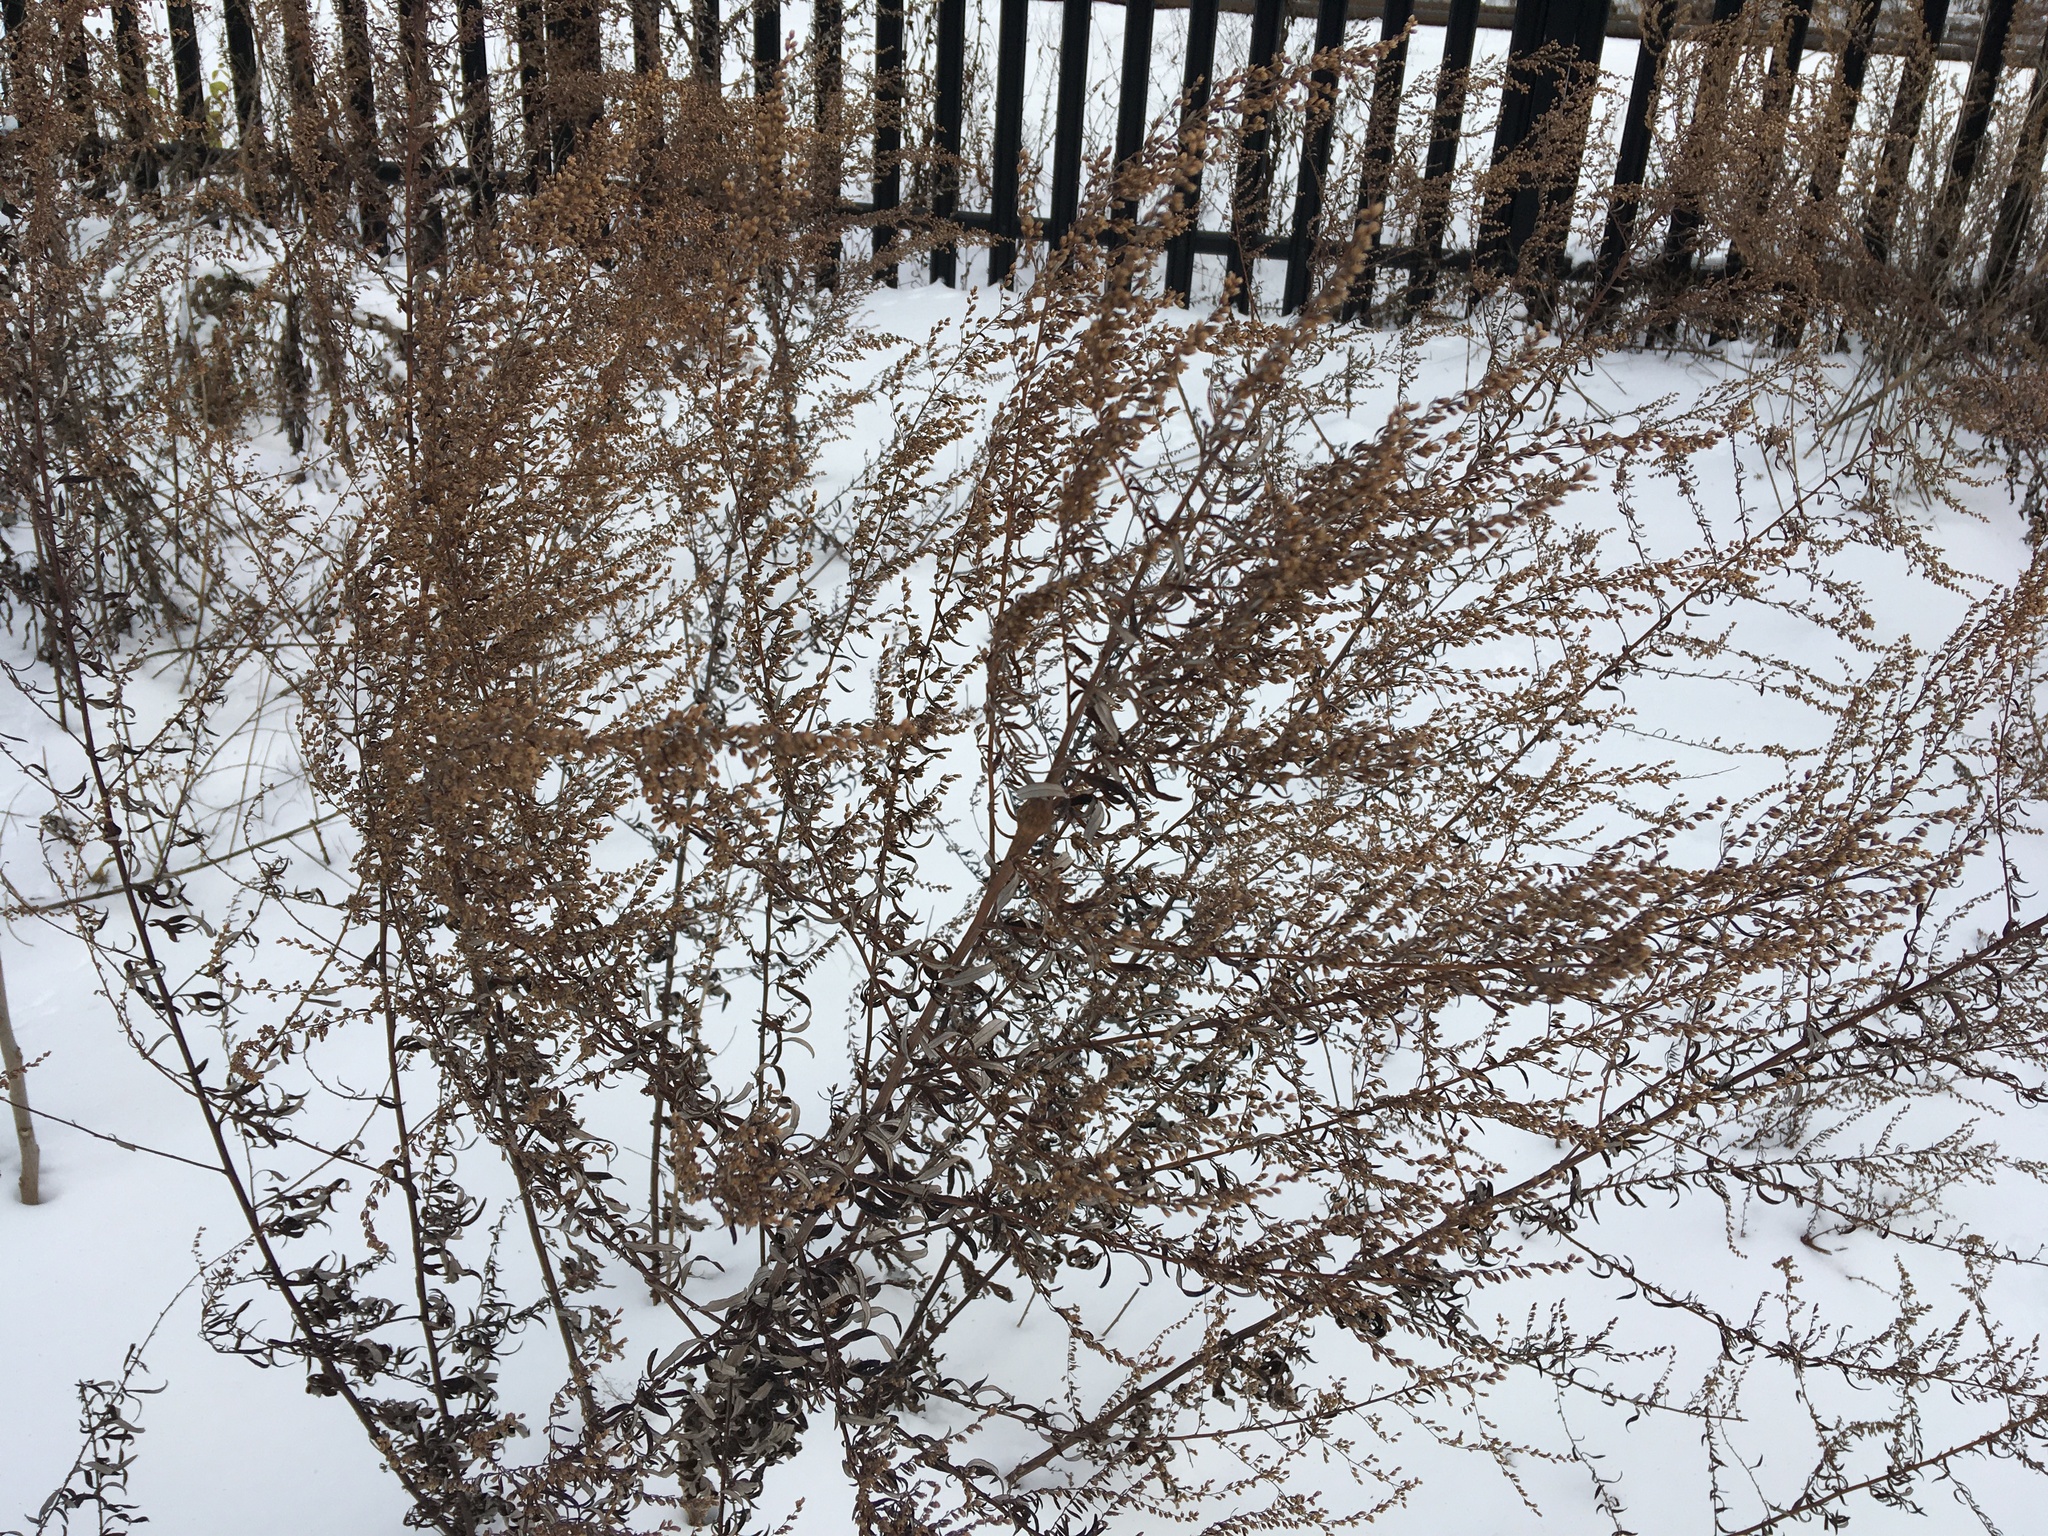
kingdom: Plantae
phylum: Tracheophyta
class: Magnoliopsida
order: Asterales
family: Asteraceae
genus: Artemisia
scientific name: Artemisia vulgaris
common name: Mugwort
